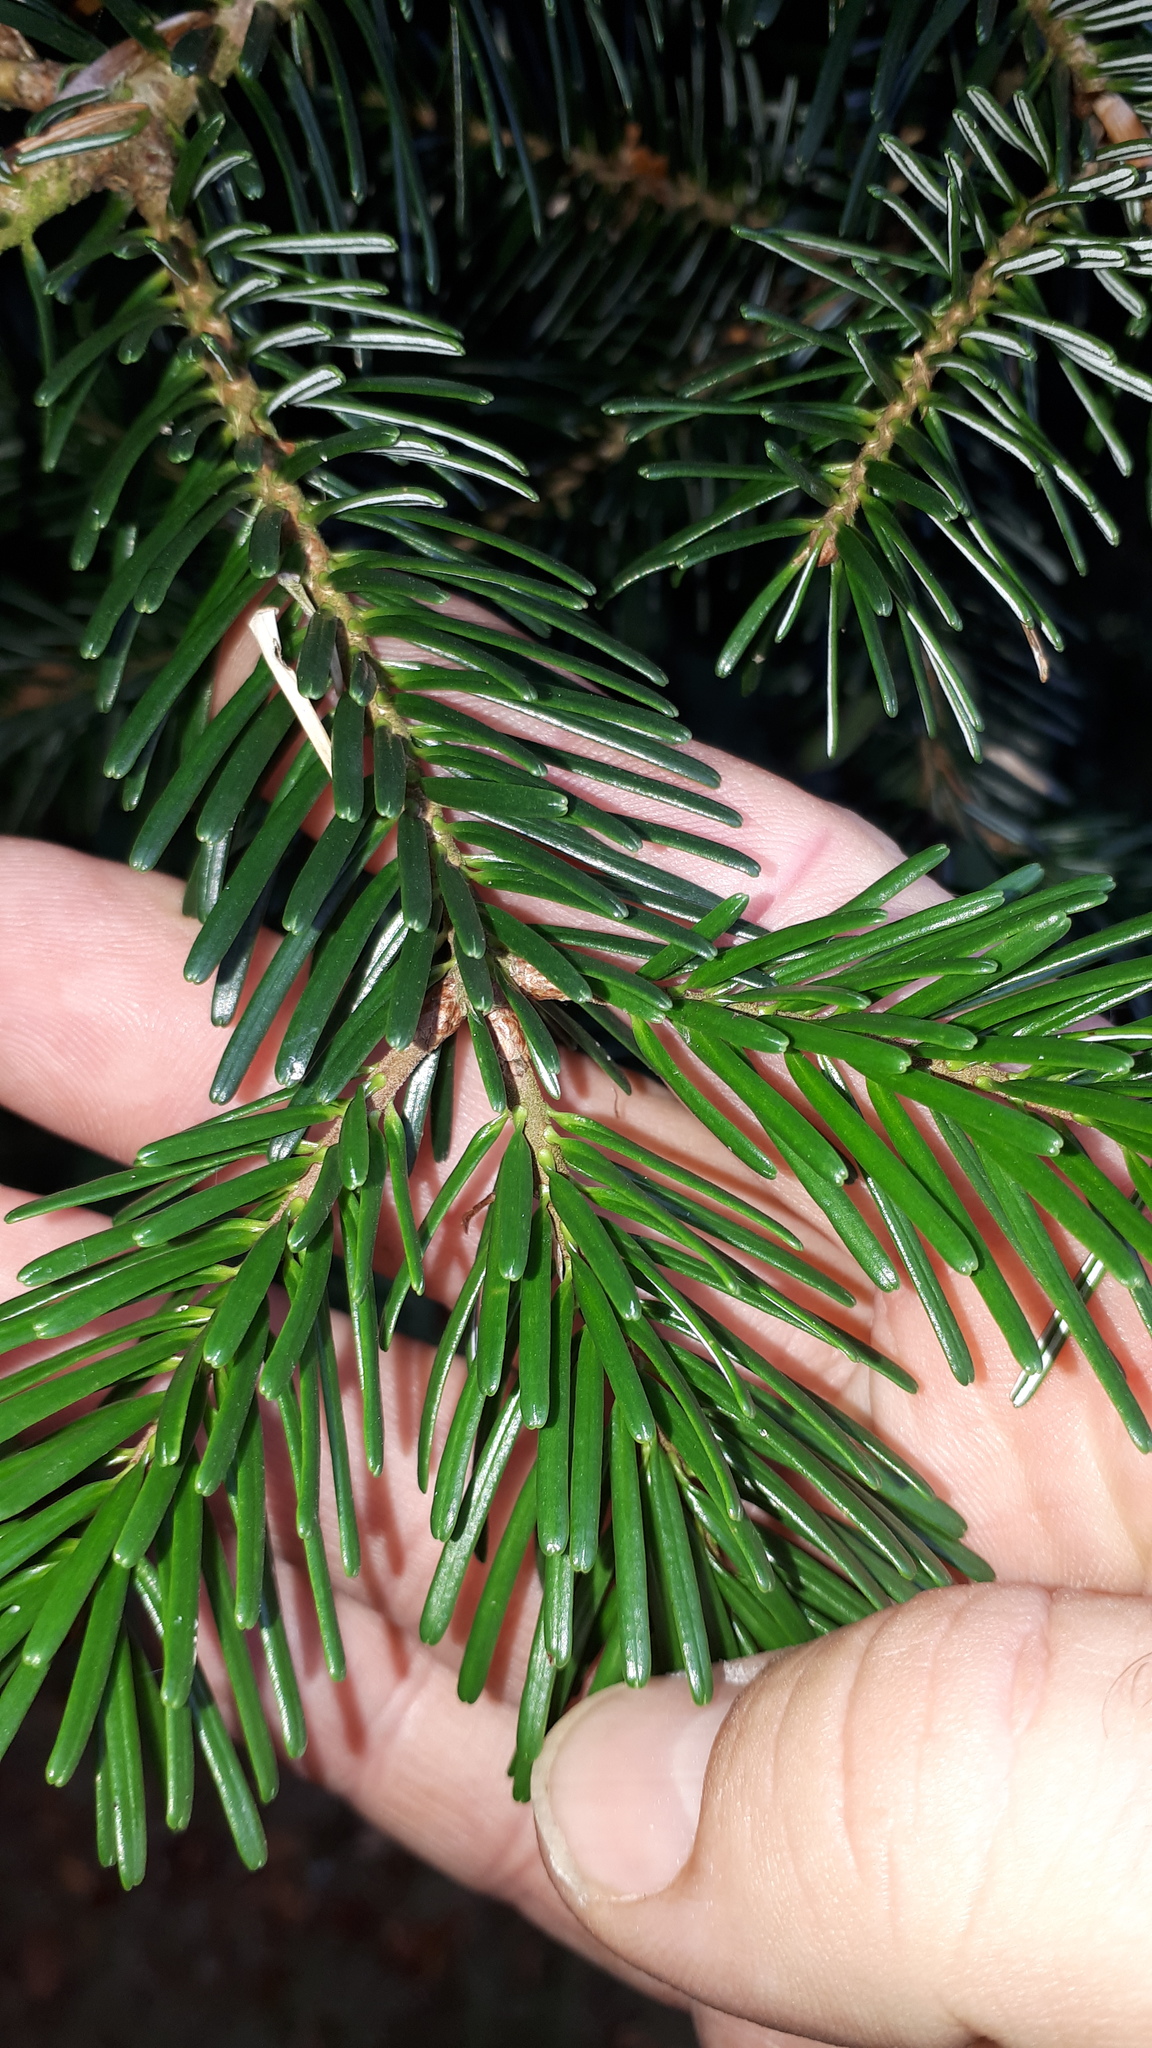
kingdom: Plantae
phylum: Tracheophyta
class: Pinopsida
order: Pinales
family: Pinaceae
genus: Abies
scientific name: Abies alba
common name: Silver fir
